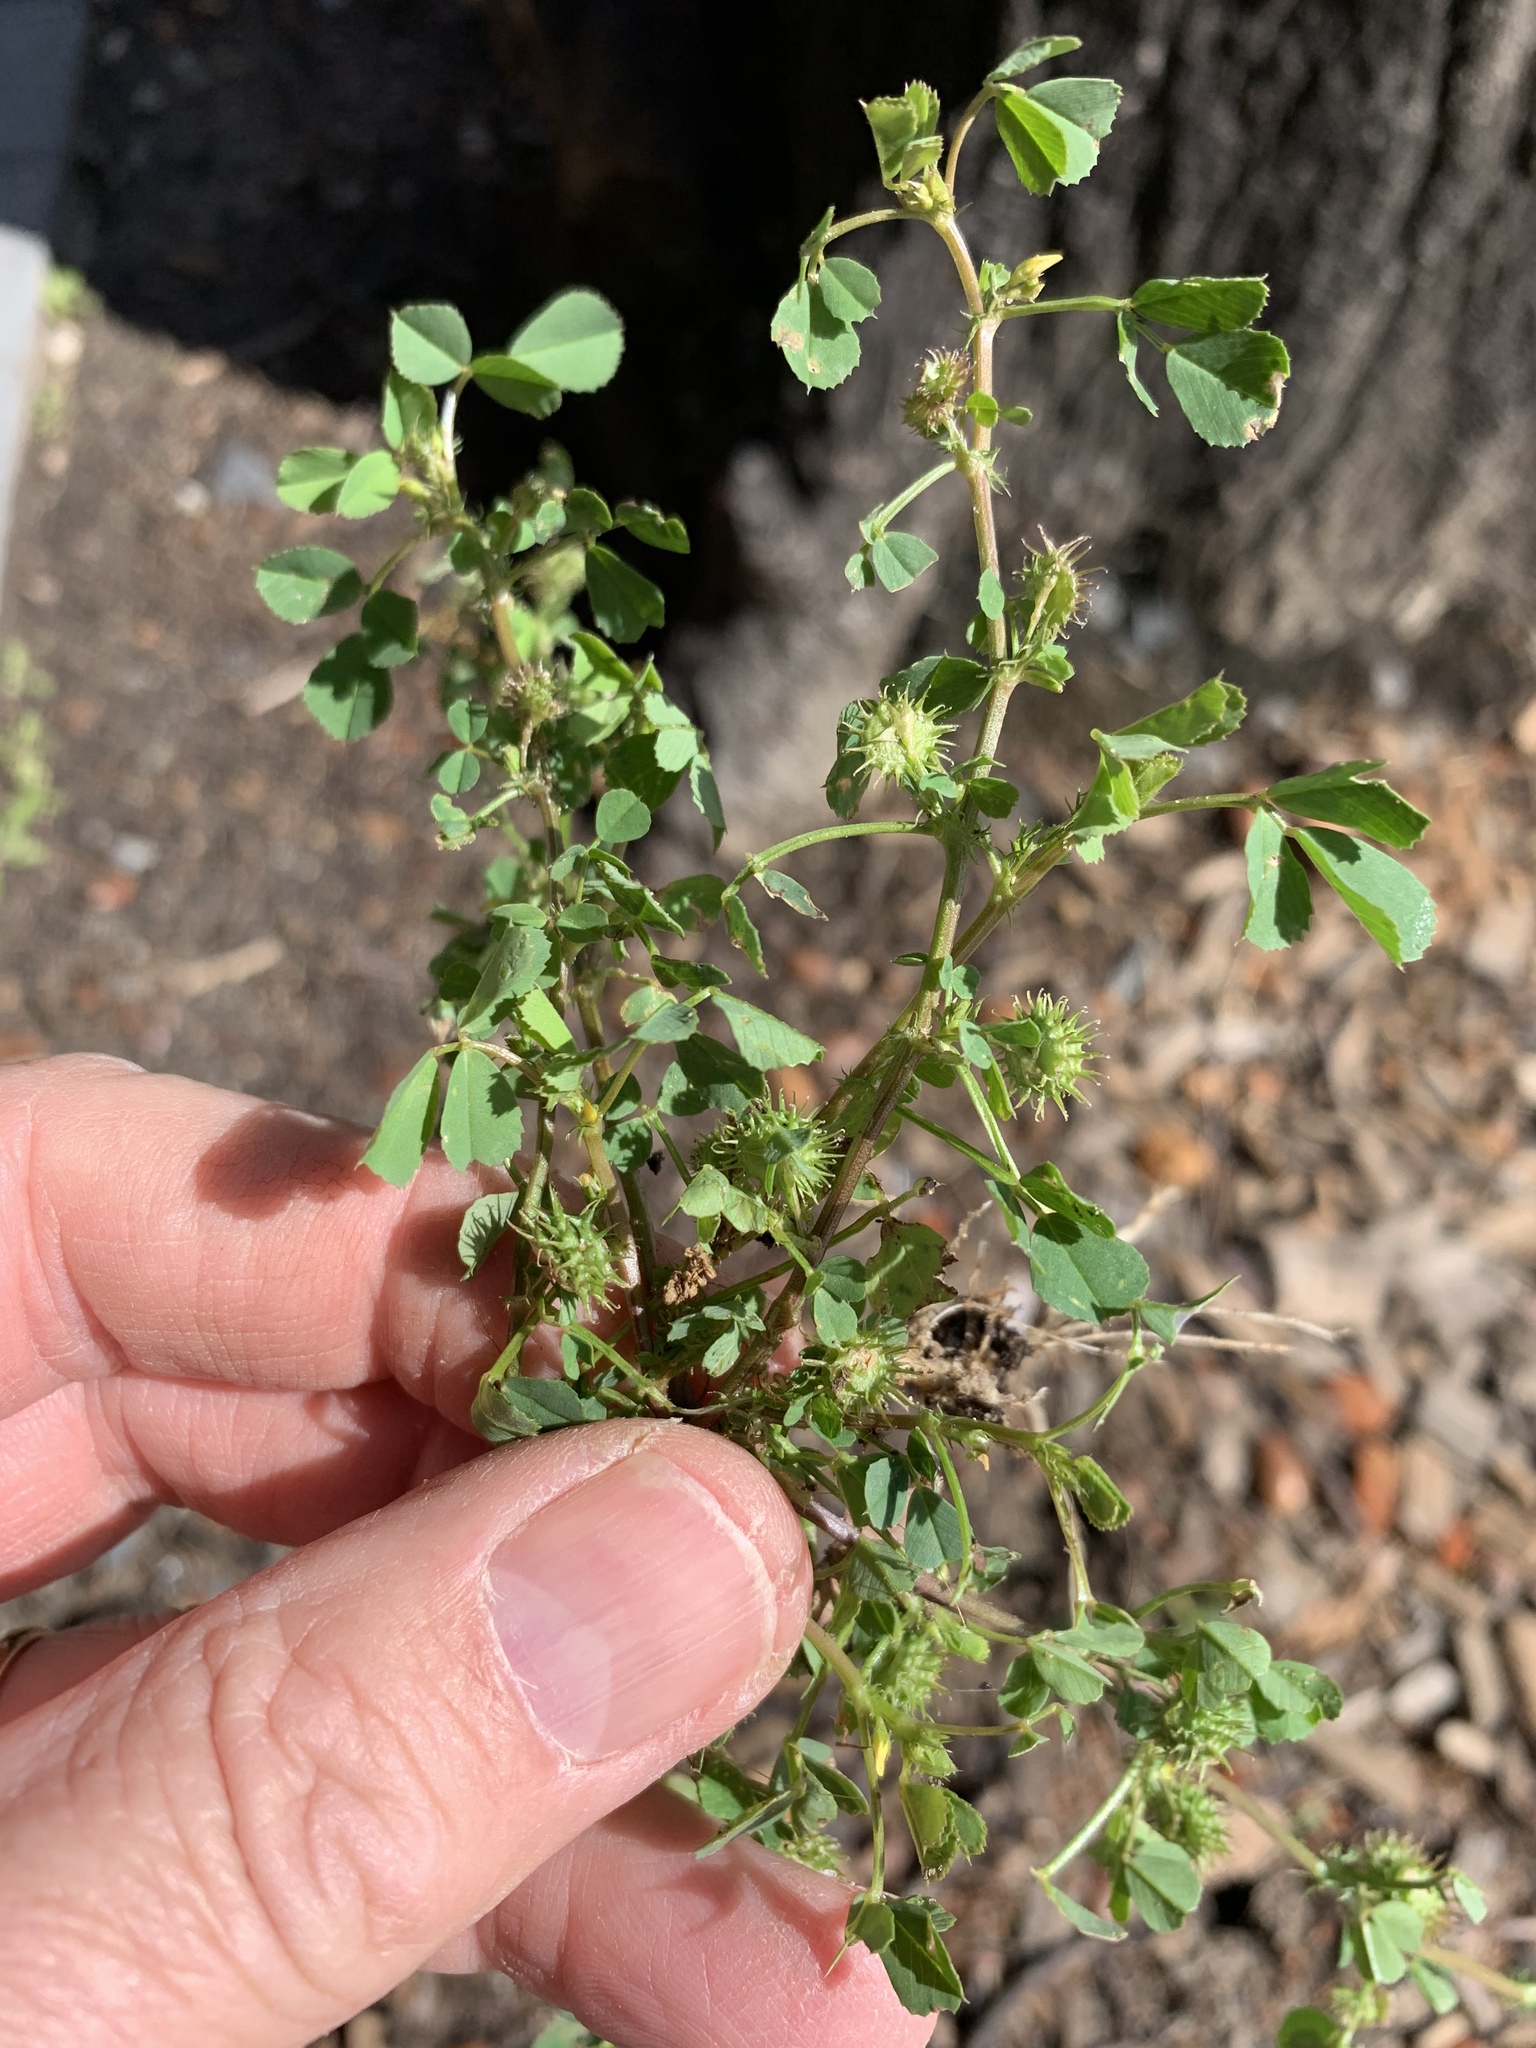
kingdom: Plantae
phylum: Tracheophyta
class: Magnoliopsida
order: Fabales
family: Fabaceae
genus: Medicago
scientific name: Medicago polymorpha
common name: Burclover
